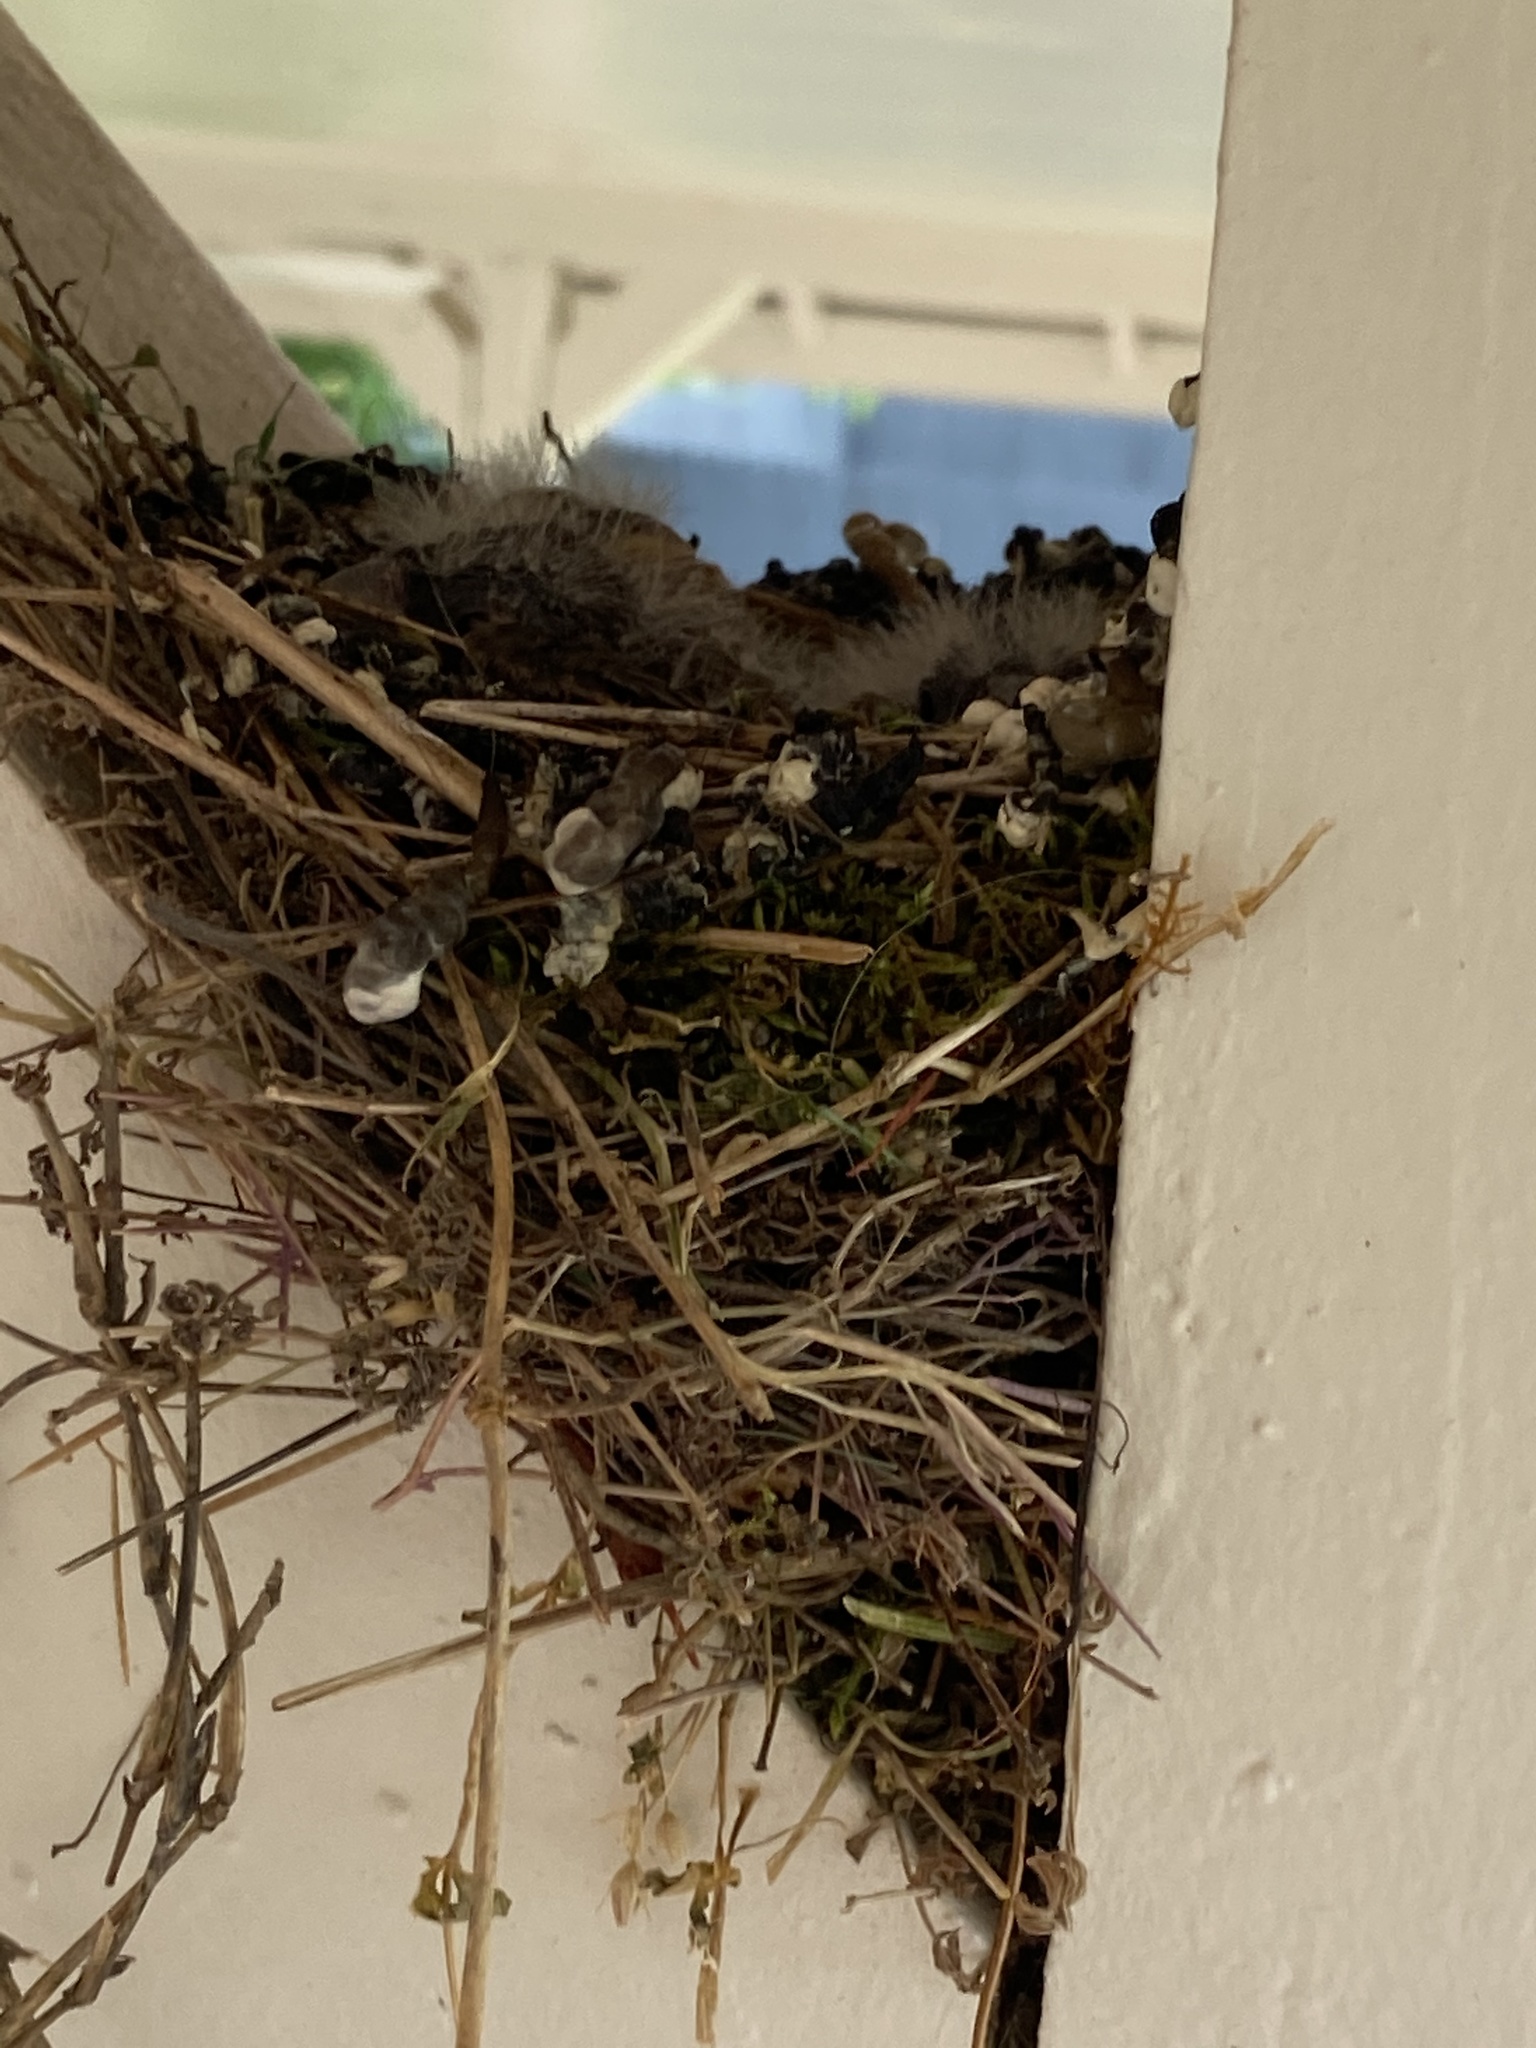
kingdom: Animalia
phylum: Chordata
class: Aves
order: Passeriformes
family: Turdidae
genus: Sialia
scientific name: Sialia sialis
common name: Eastern bluebird
